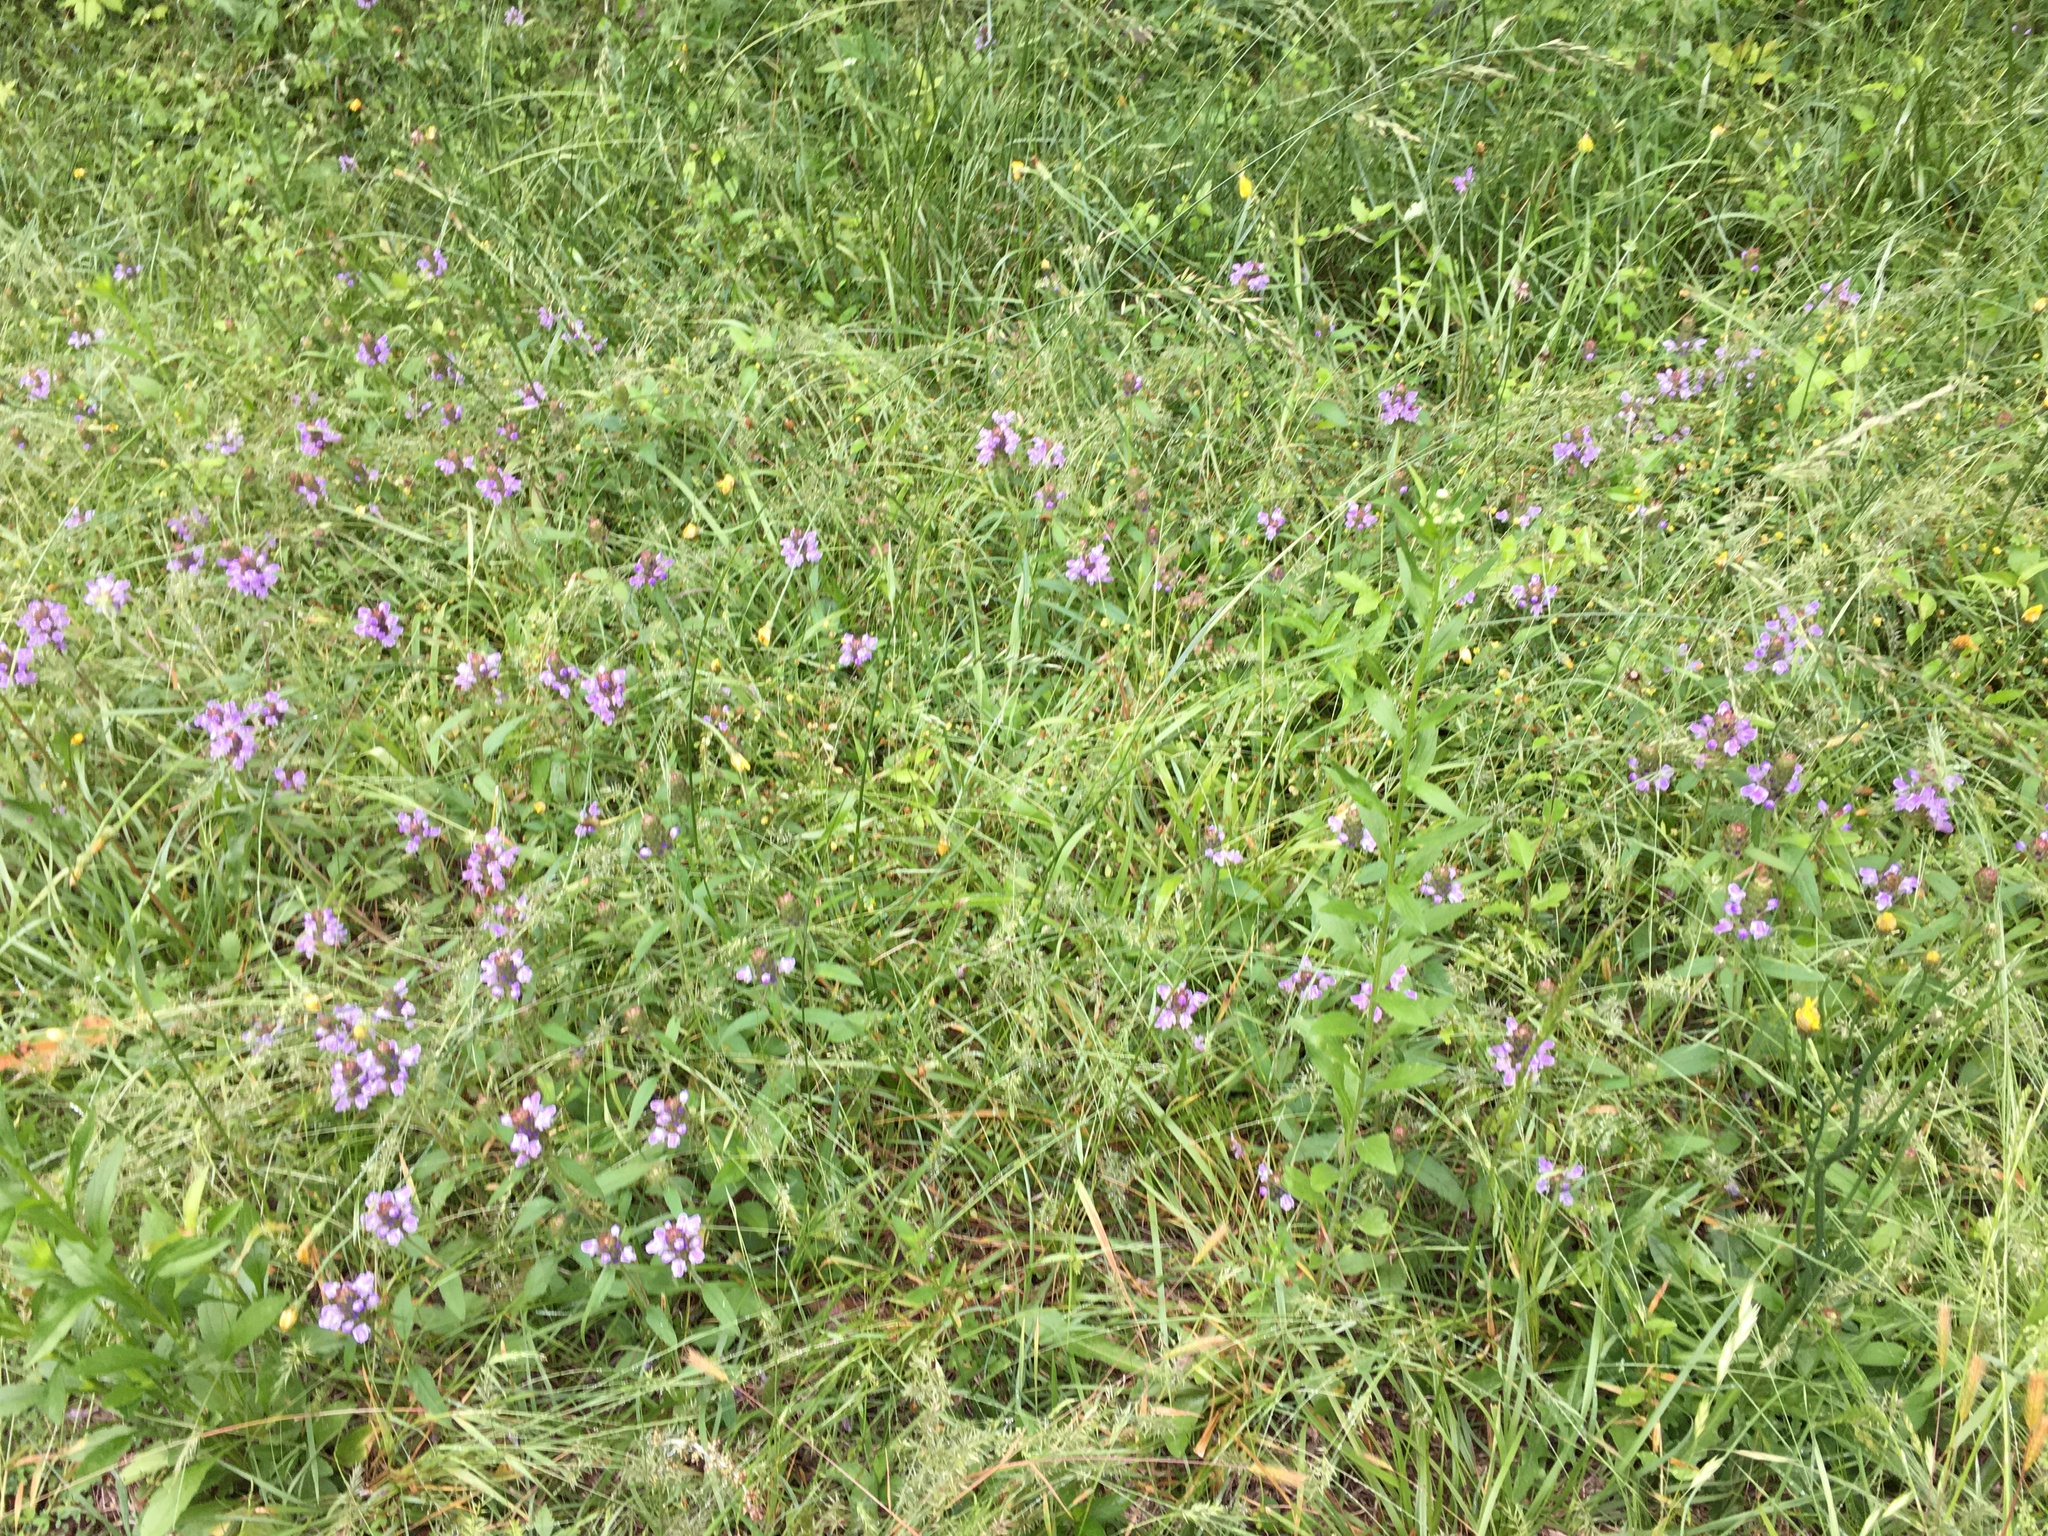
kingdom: Plantae
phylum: Tracheophyta
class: Magnoliopsida
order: Lamiales
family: Lamiaceae
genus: Prunella
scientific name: Prunella vulgaris
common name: Heal-all
